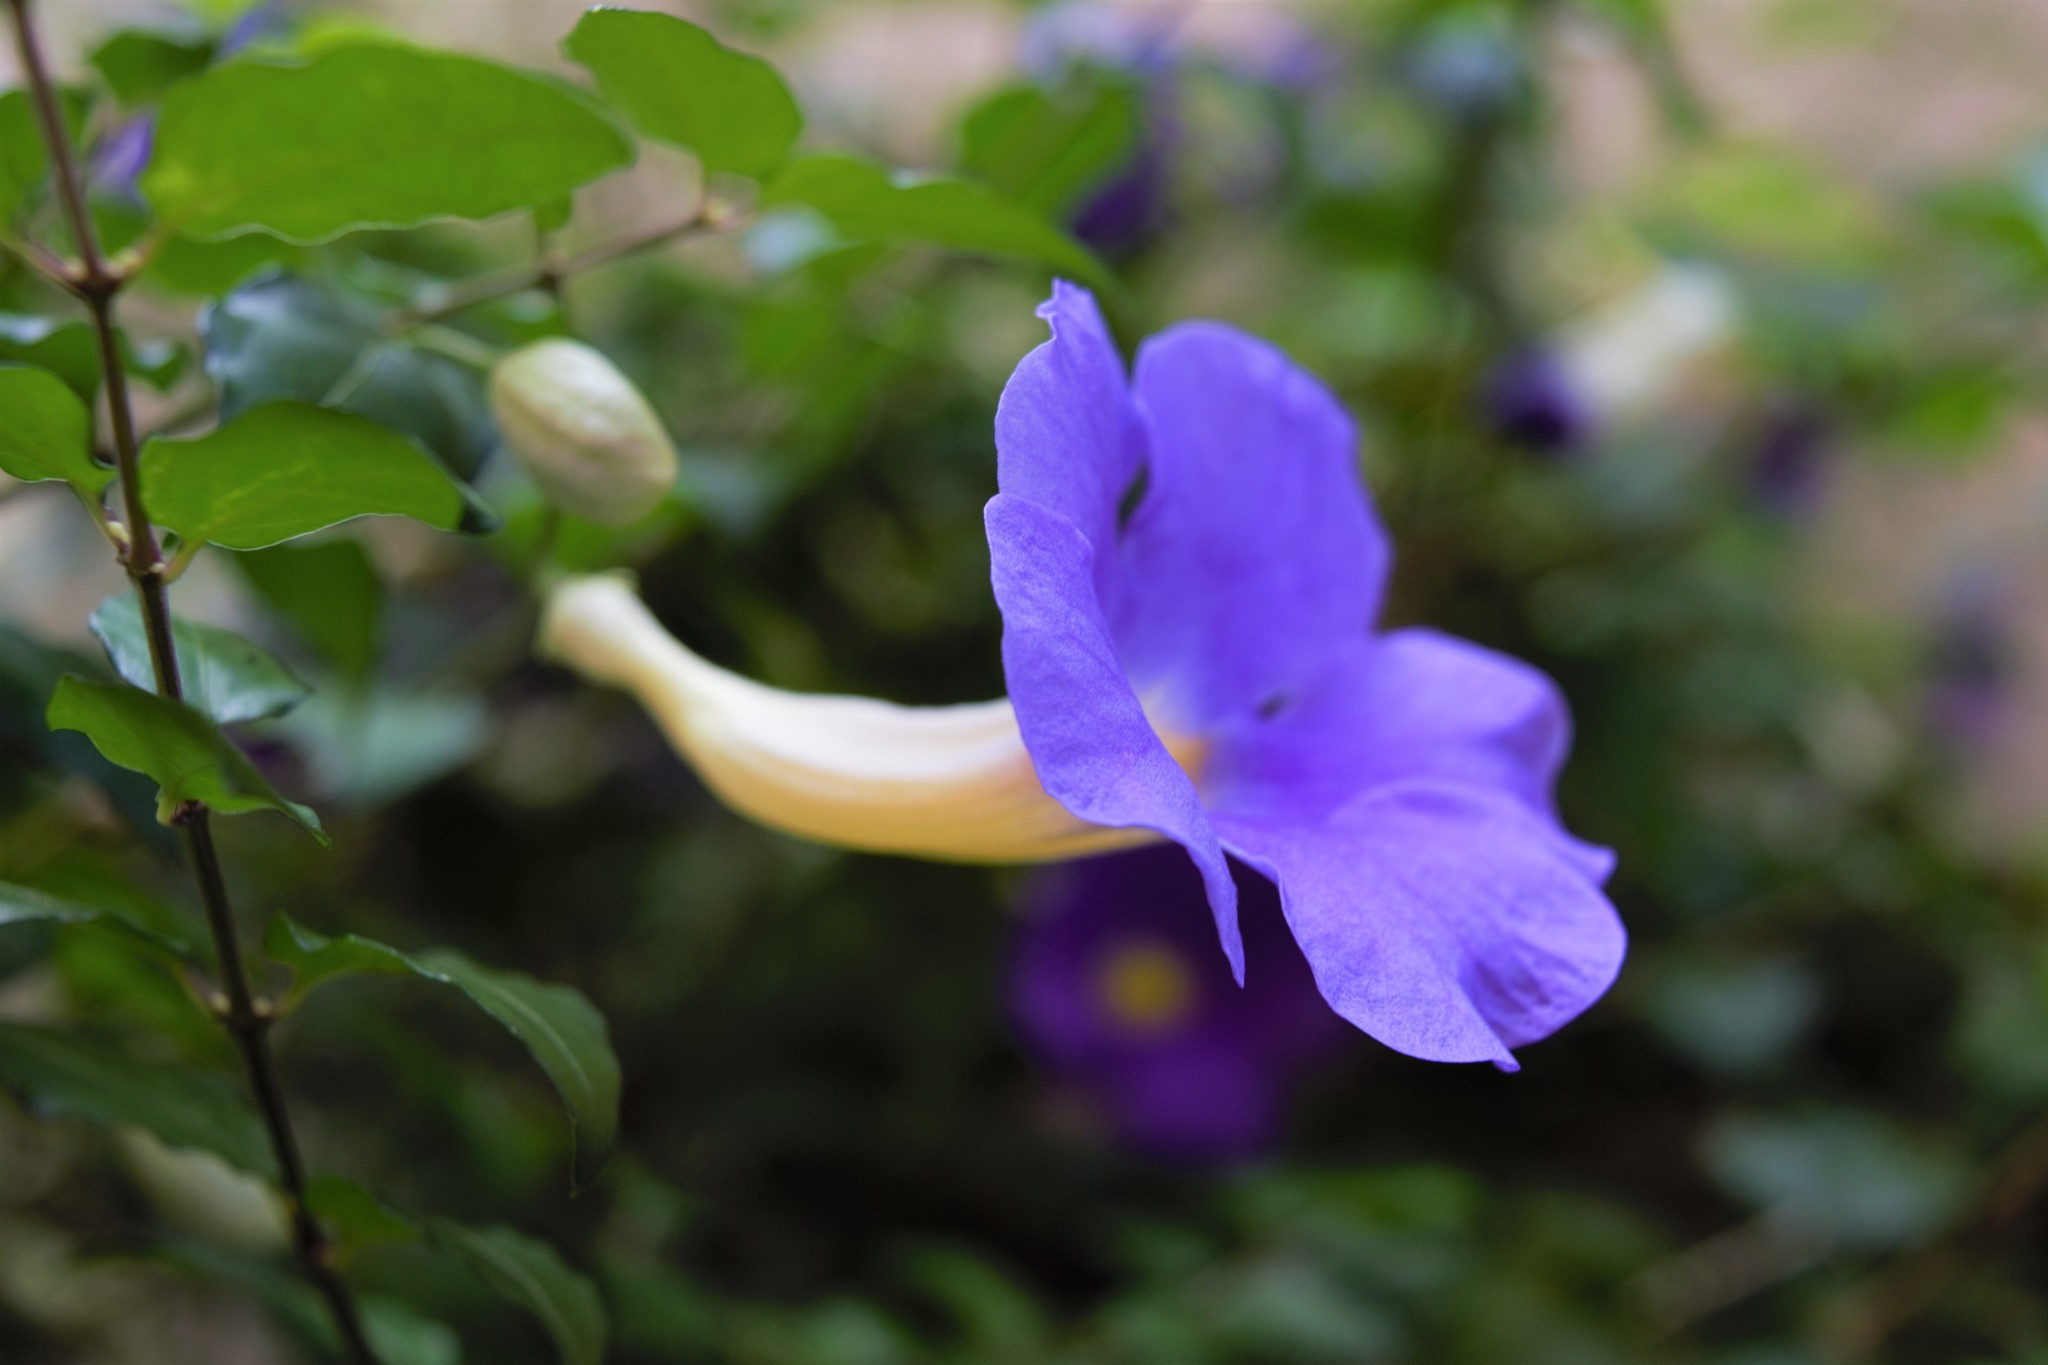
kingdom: Plantae
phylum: Tracheophyta
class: Magnoliopsida
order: Lamiales
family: Acanthaceae
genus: Thunbergia
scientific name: Thunbergia erecta
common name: Bush clockvine
